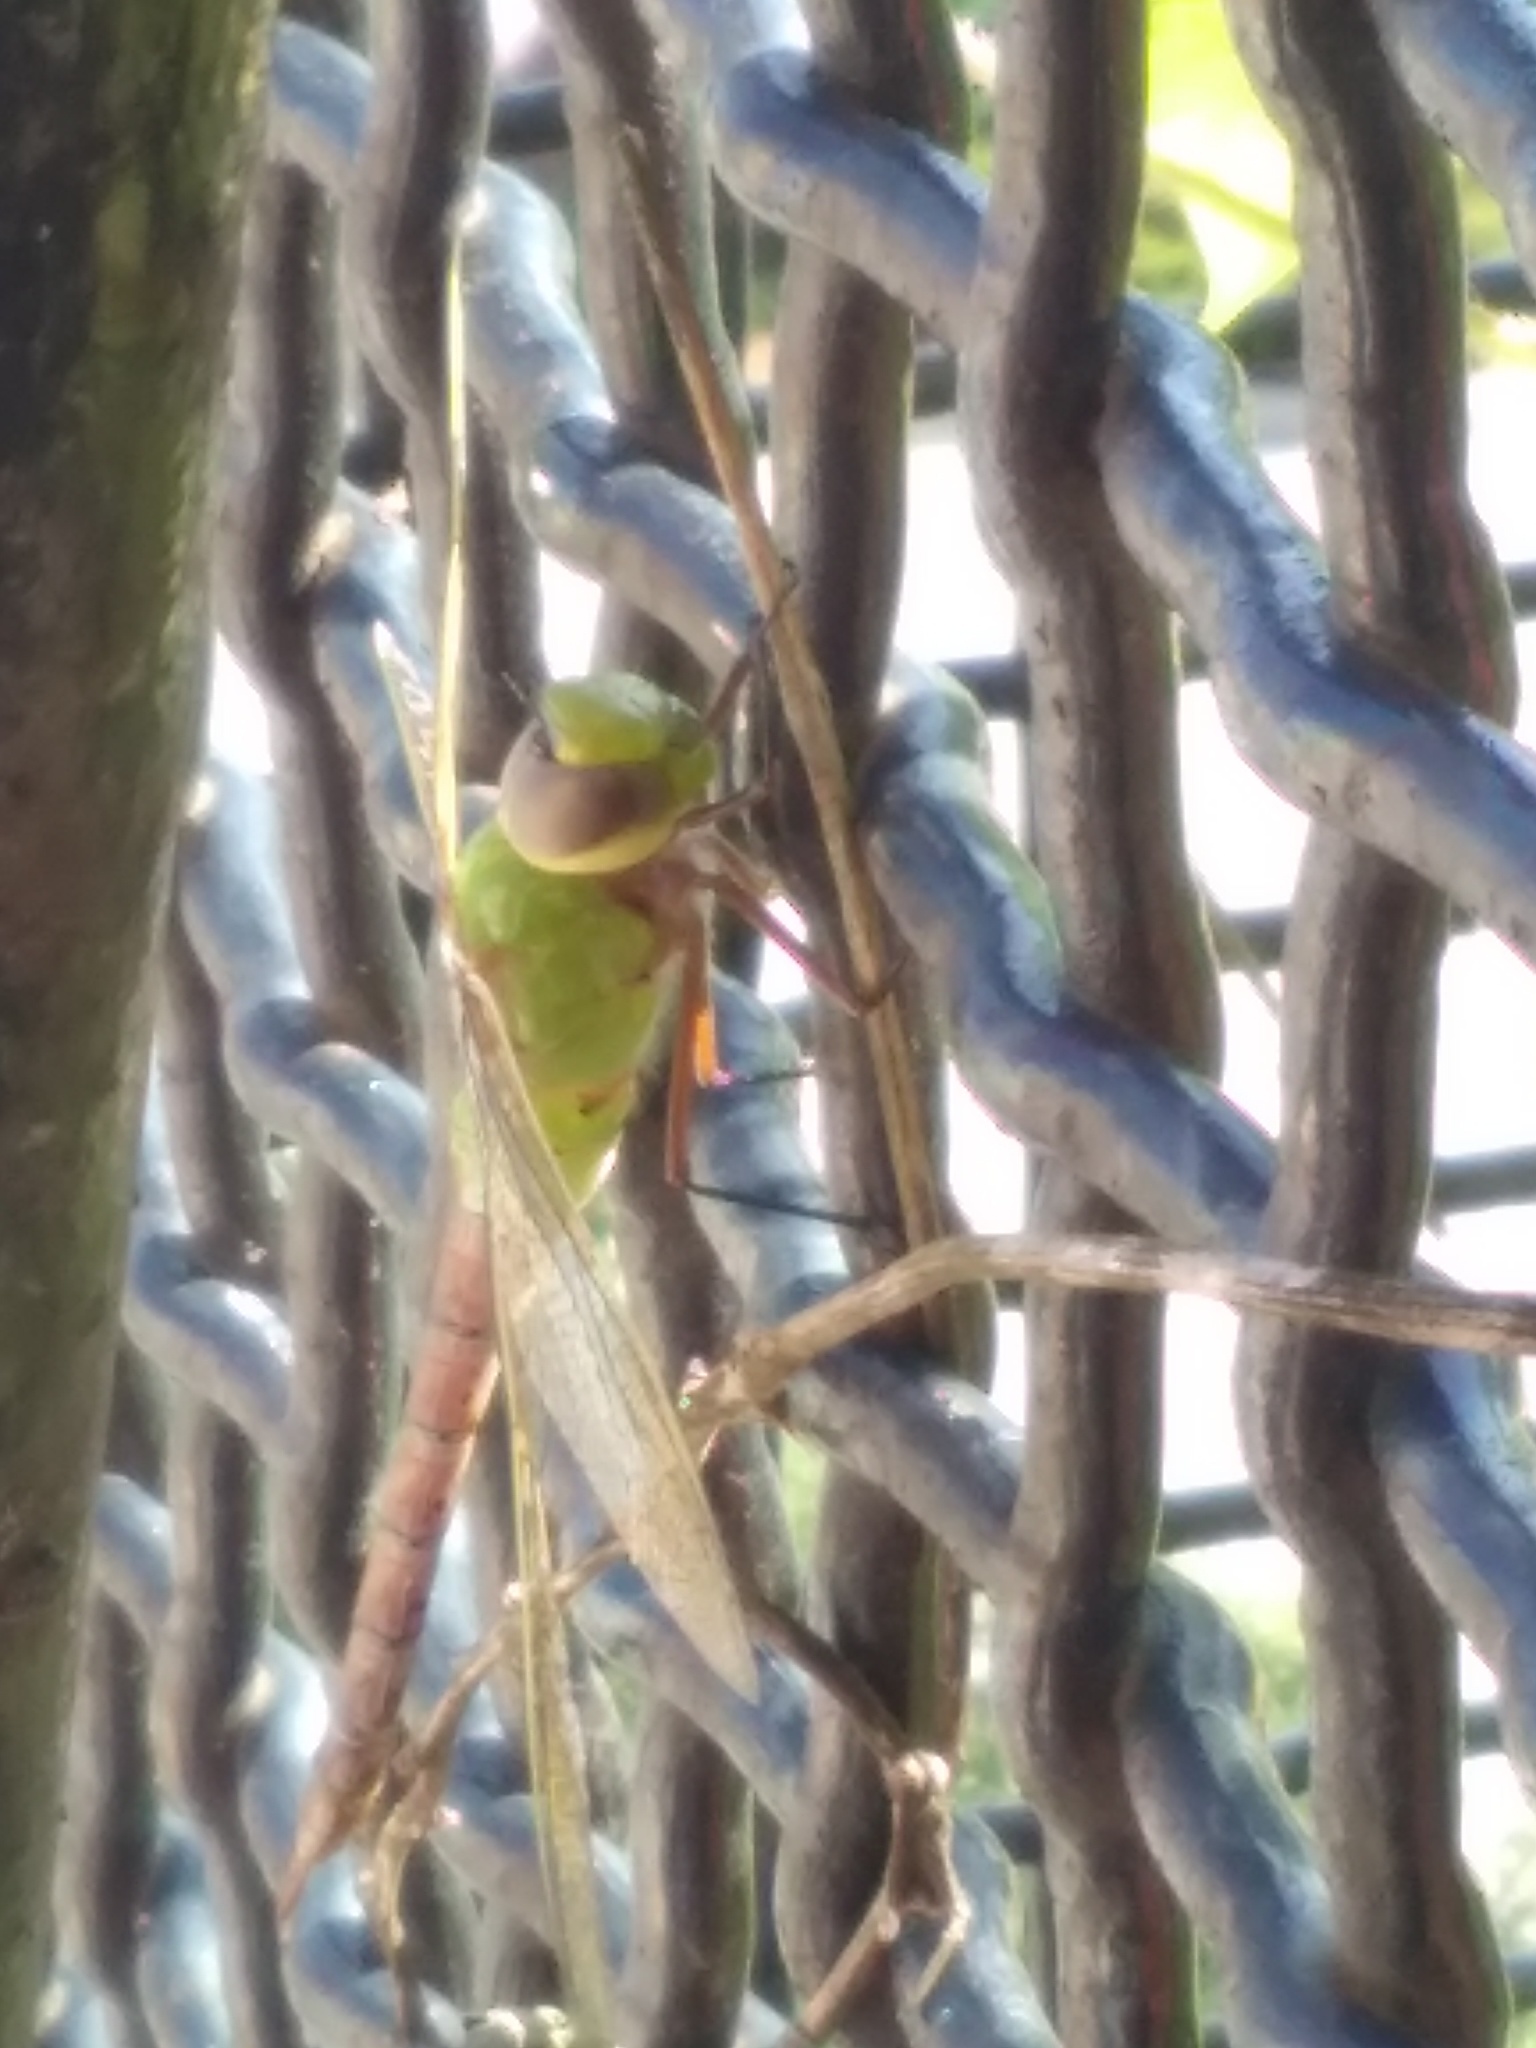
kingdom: Animalia
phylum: Arthropoda
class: Insecta
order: Odonata
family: Aeshnidae
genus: Anax
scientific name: Anax longipes
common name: Comet darner
